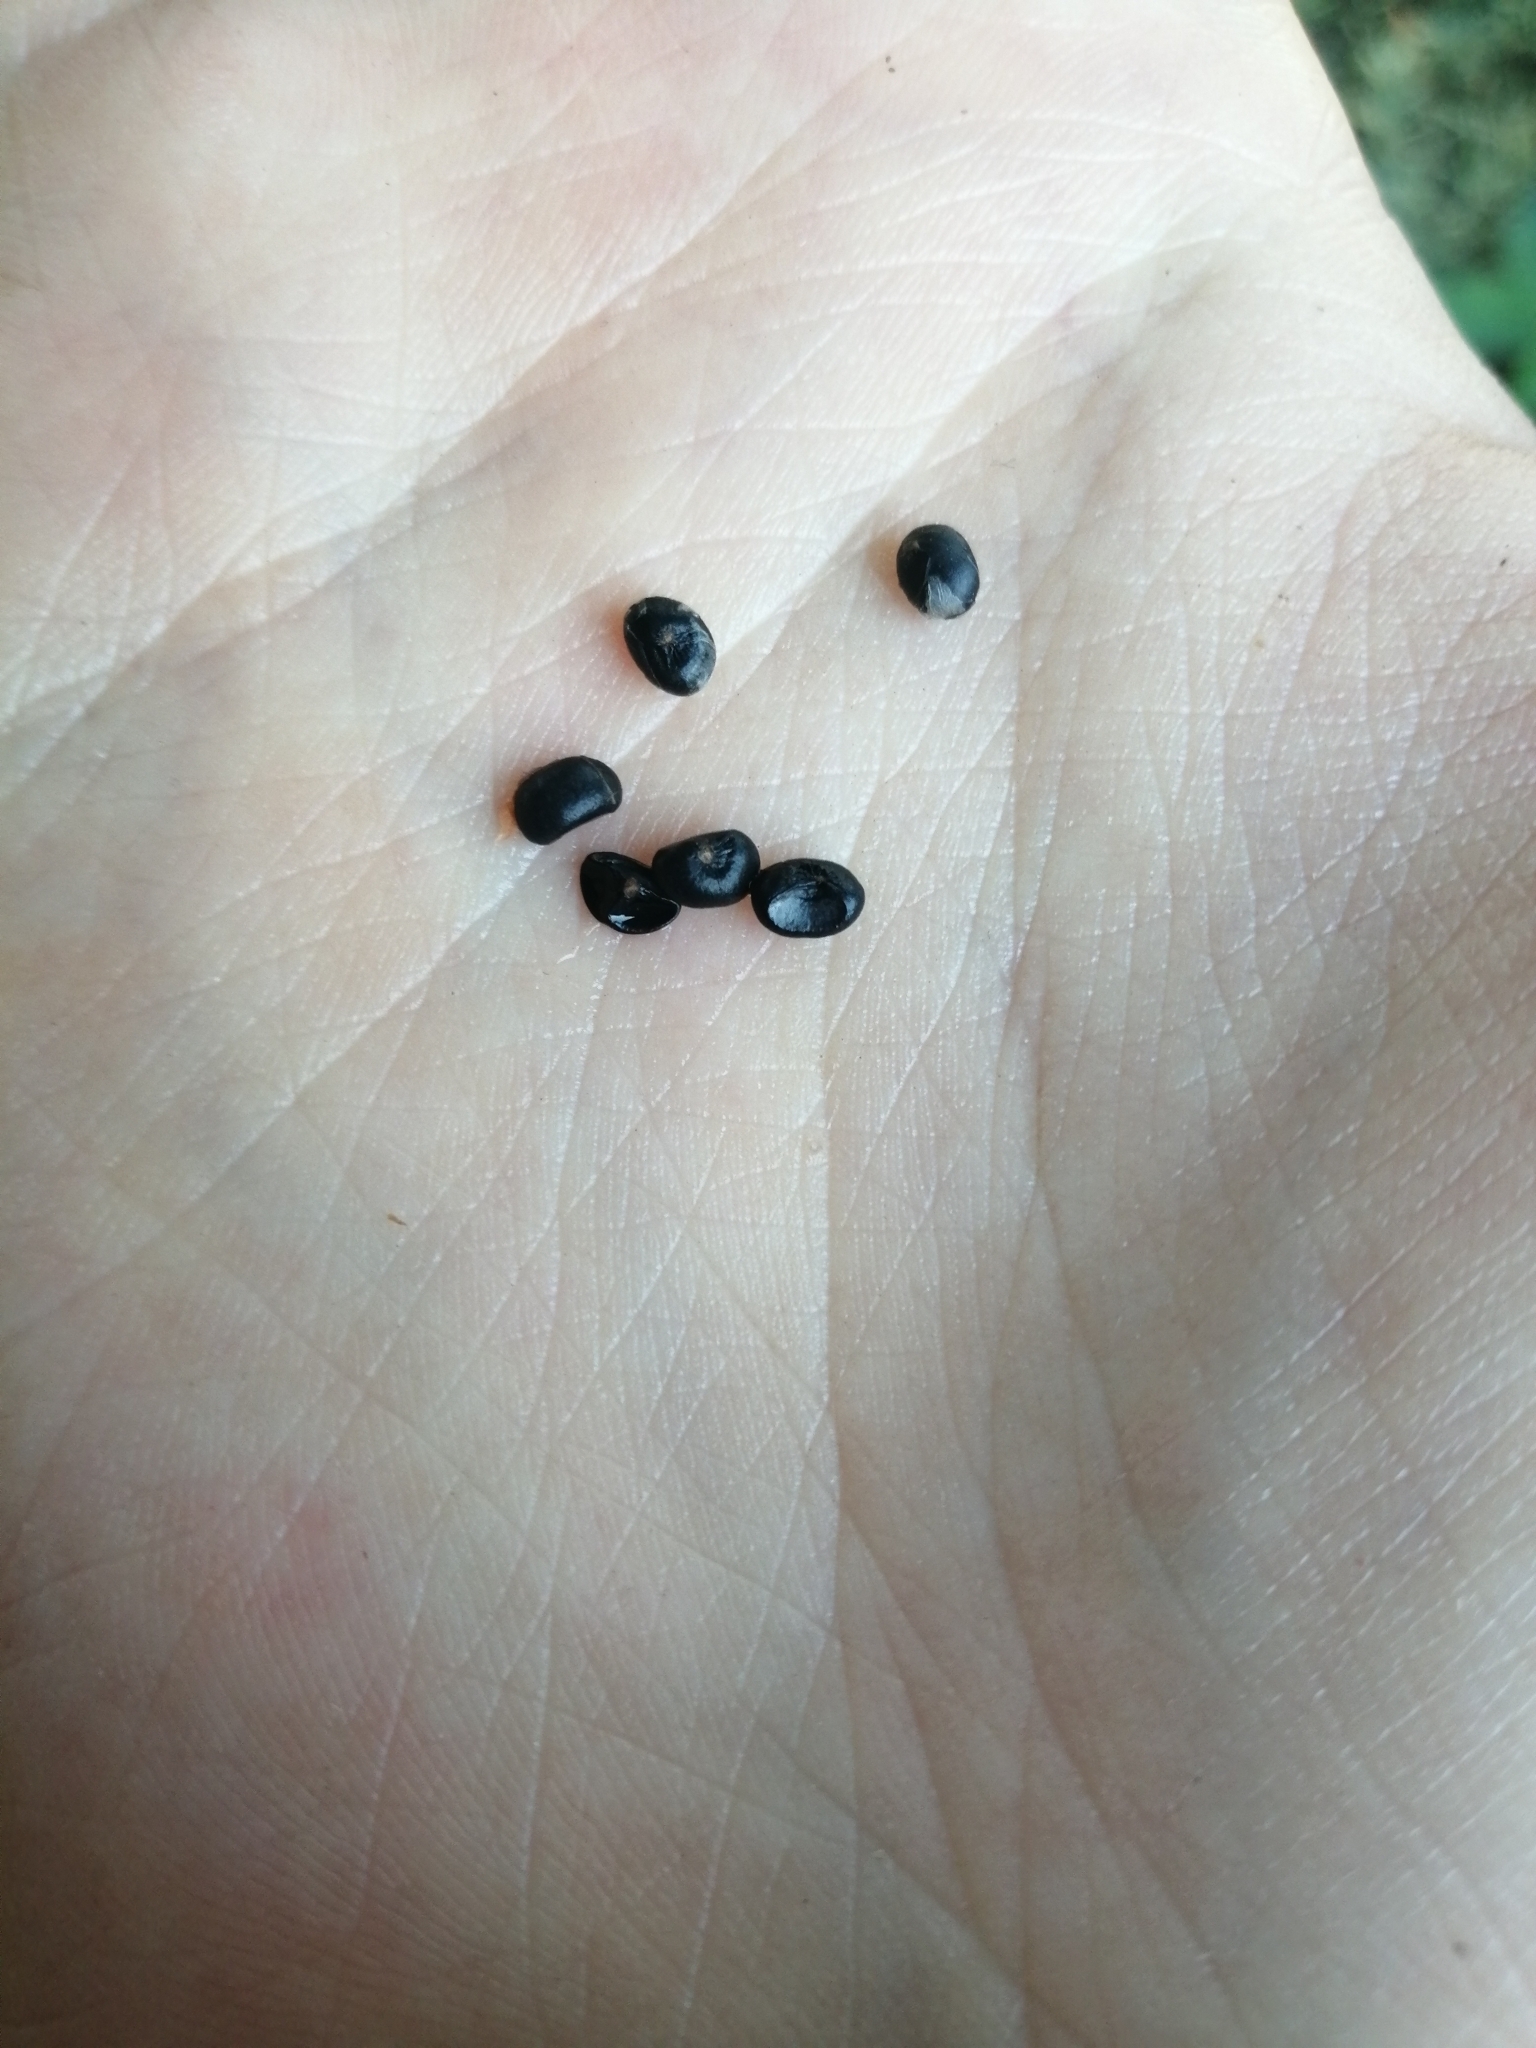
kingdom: Plantae
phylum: Tracheophyta
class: Liliopsida
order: Asparagales
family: Asparagaceae
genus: Asparagus
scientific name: Asparagus inderiensis
